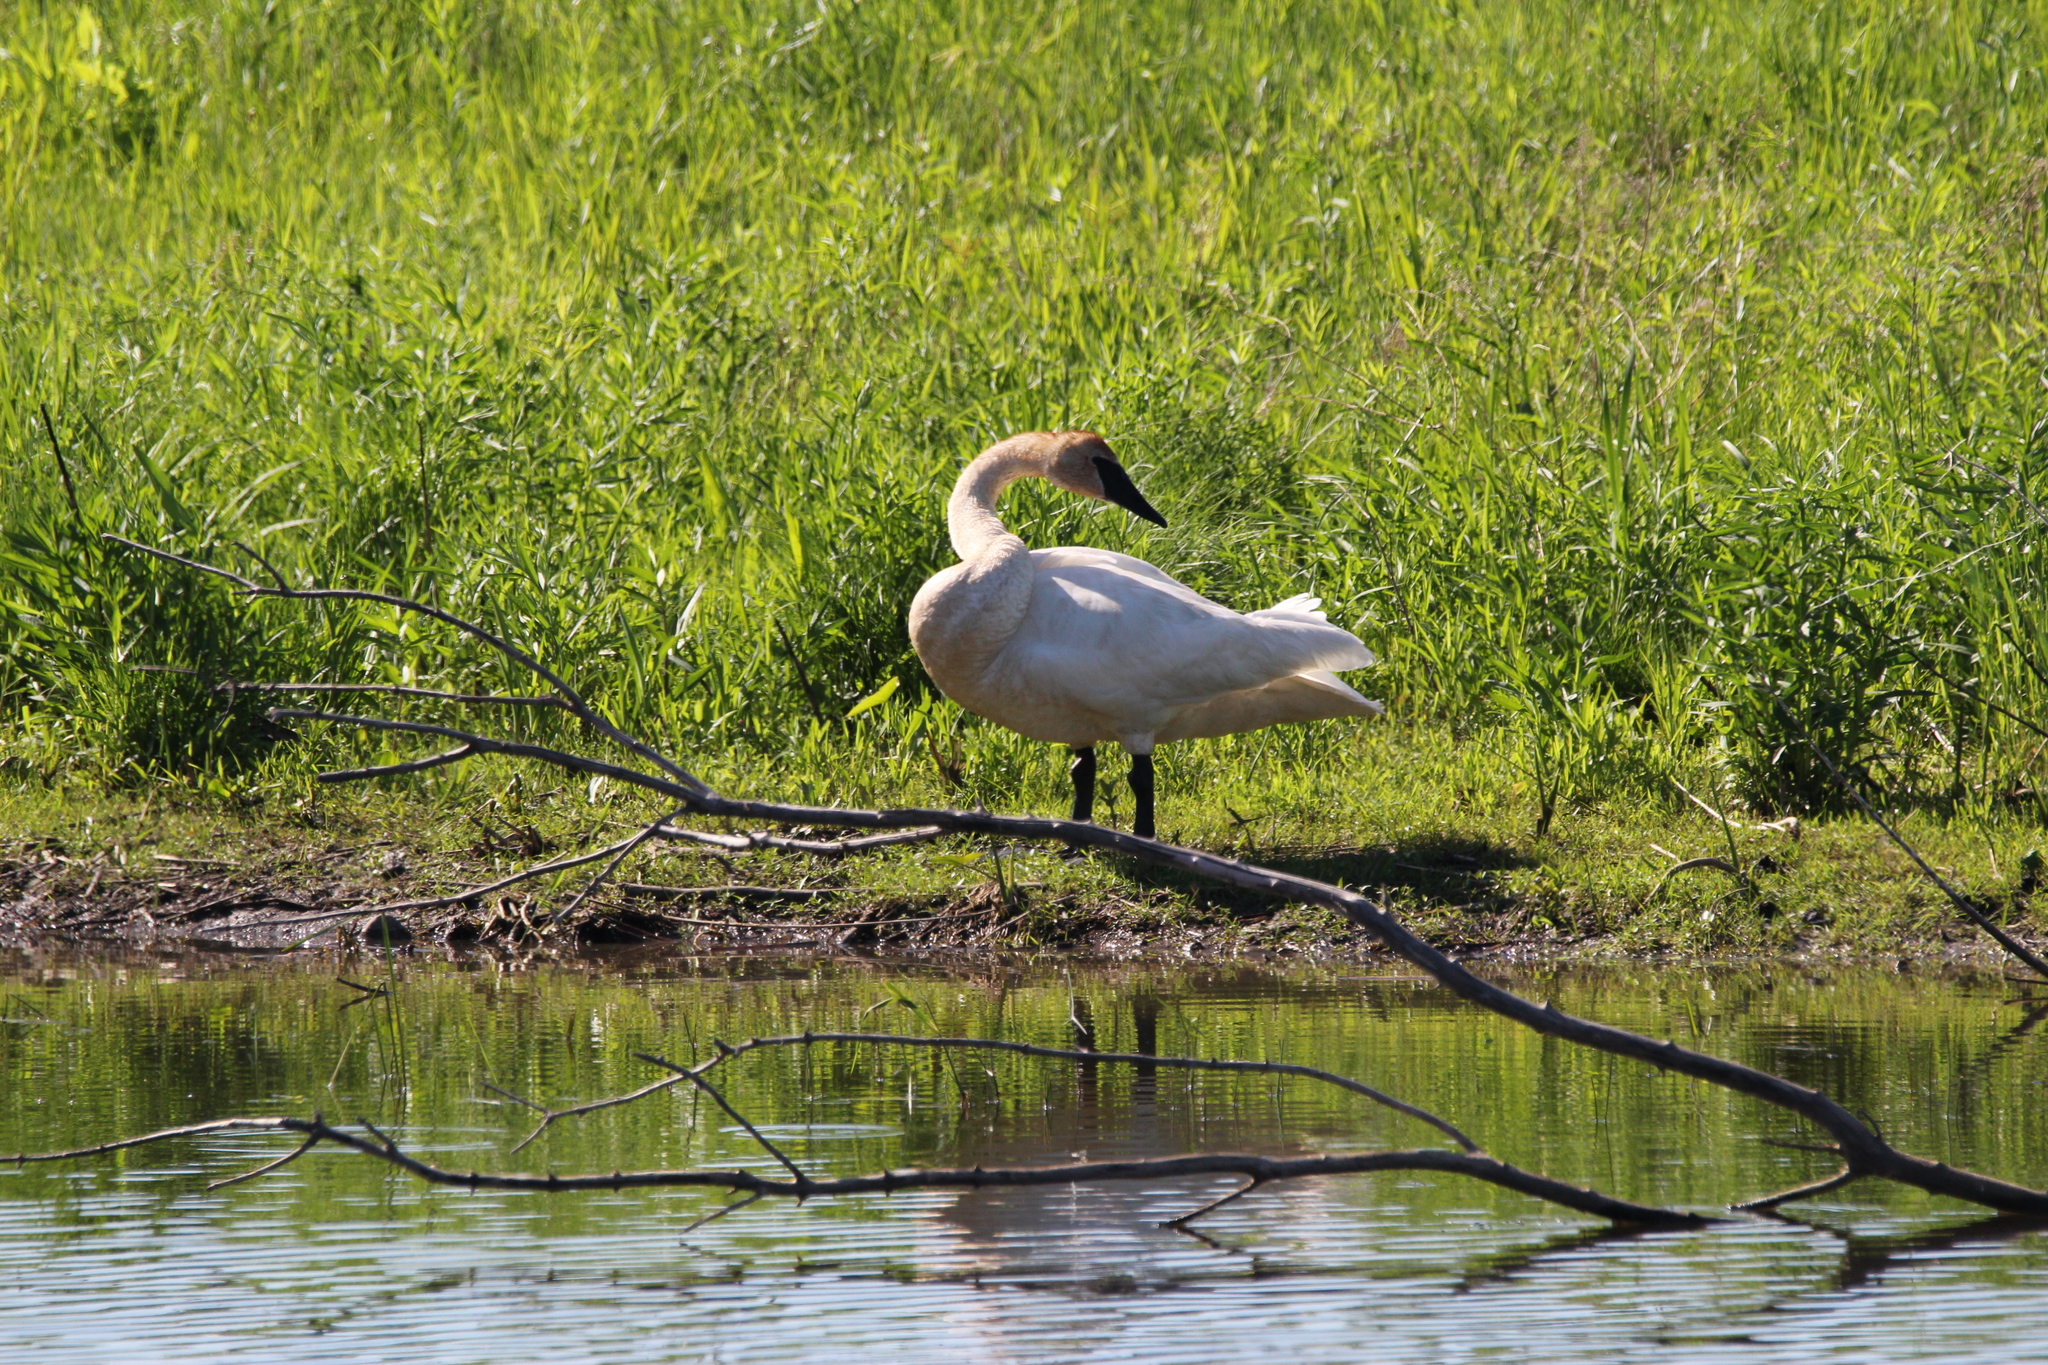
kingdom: Animalia
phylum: Chordata
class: Aves
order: Anseriformes
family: Anatidae
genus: Cygnus
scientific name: Cygnus buccinator
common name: Trumpeter swan
